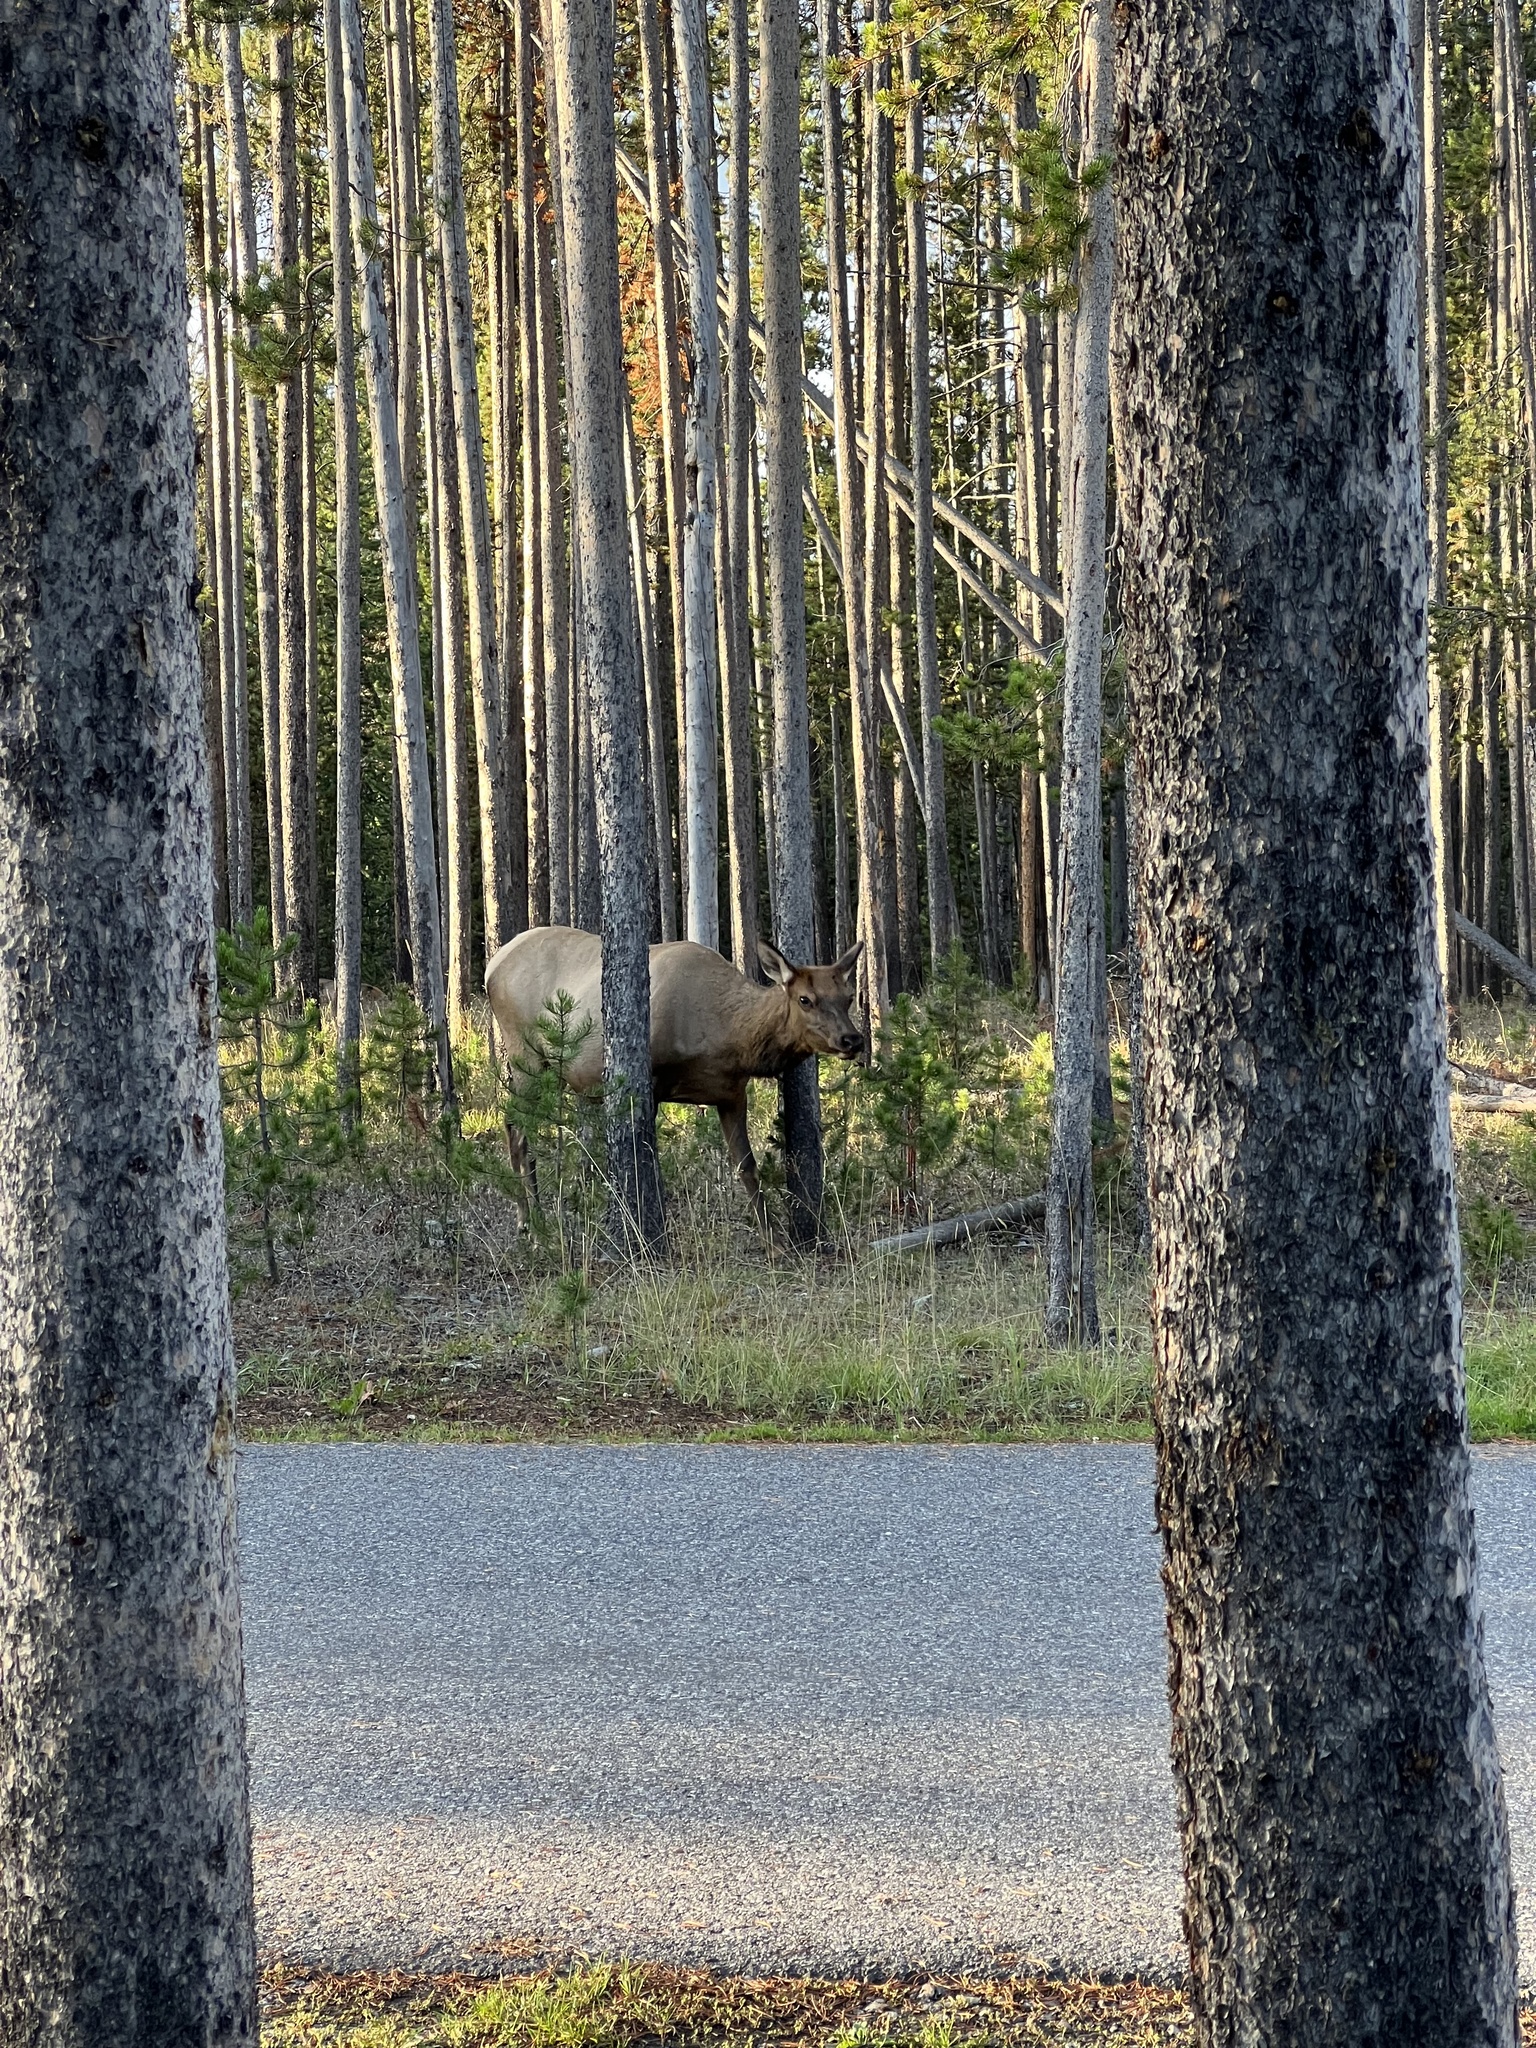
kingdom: Animalia
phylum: Chordata
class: Mammalia
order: Artiodactyla
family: Cervidae
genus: Cervus
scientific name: Cervus elaphus
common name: Red deer
